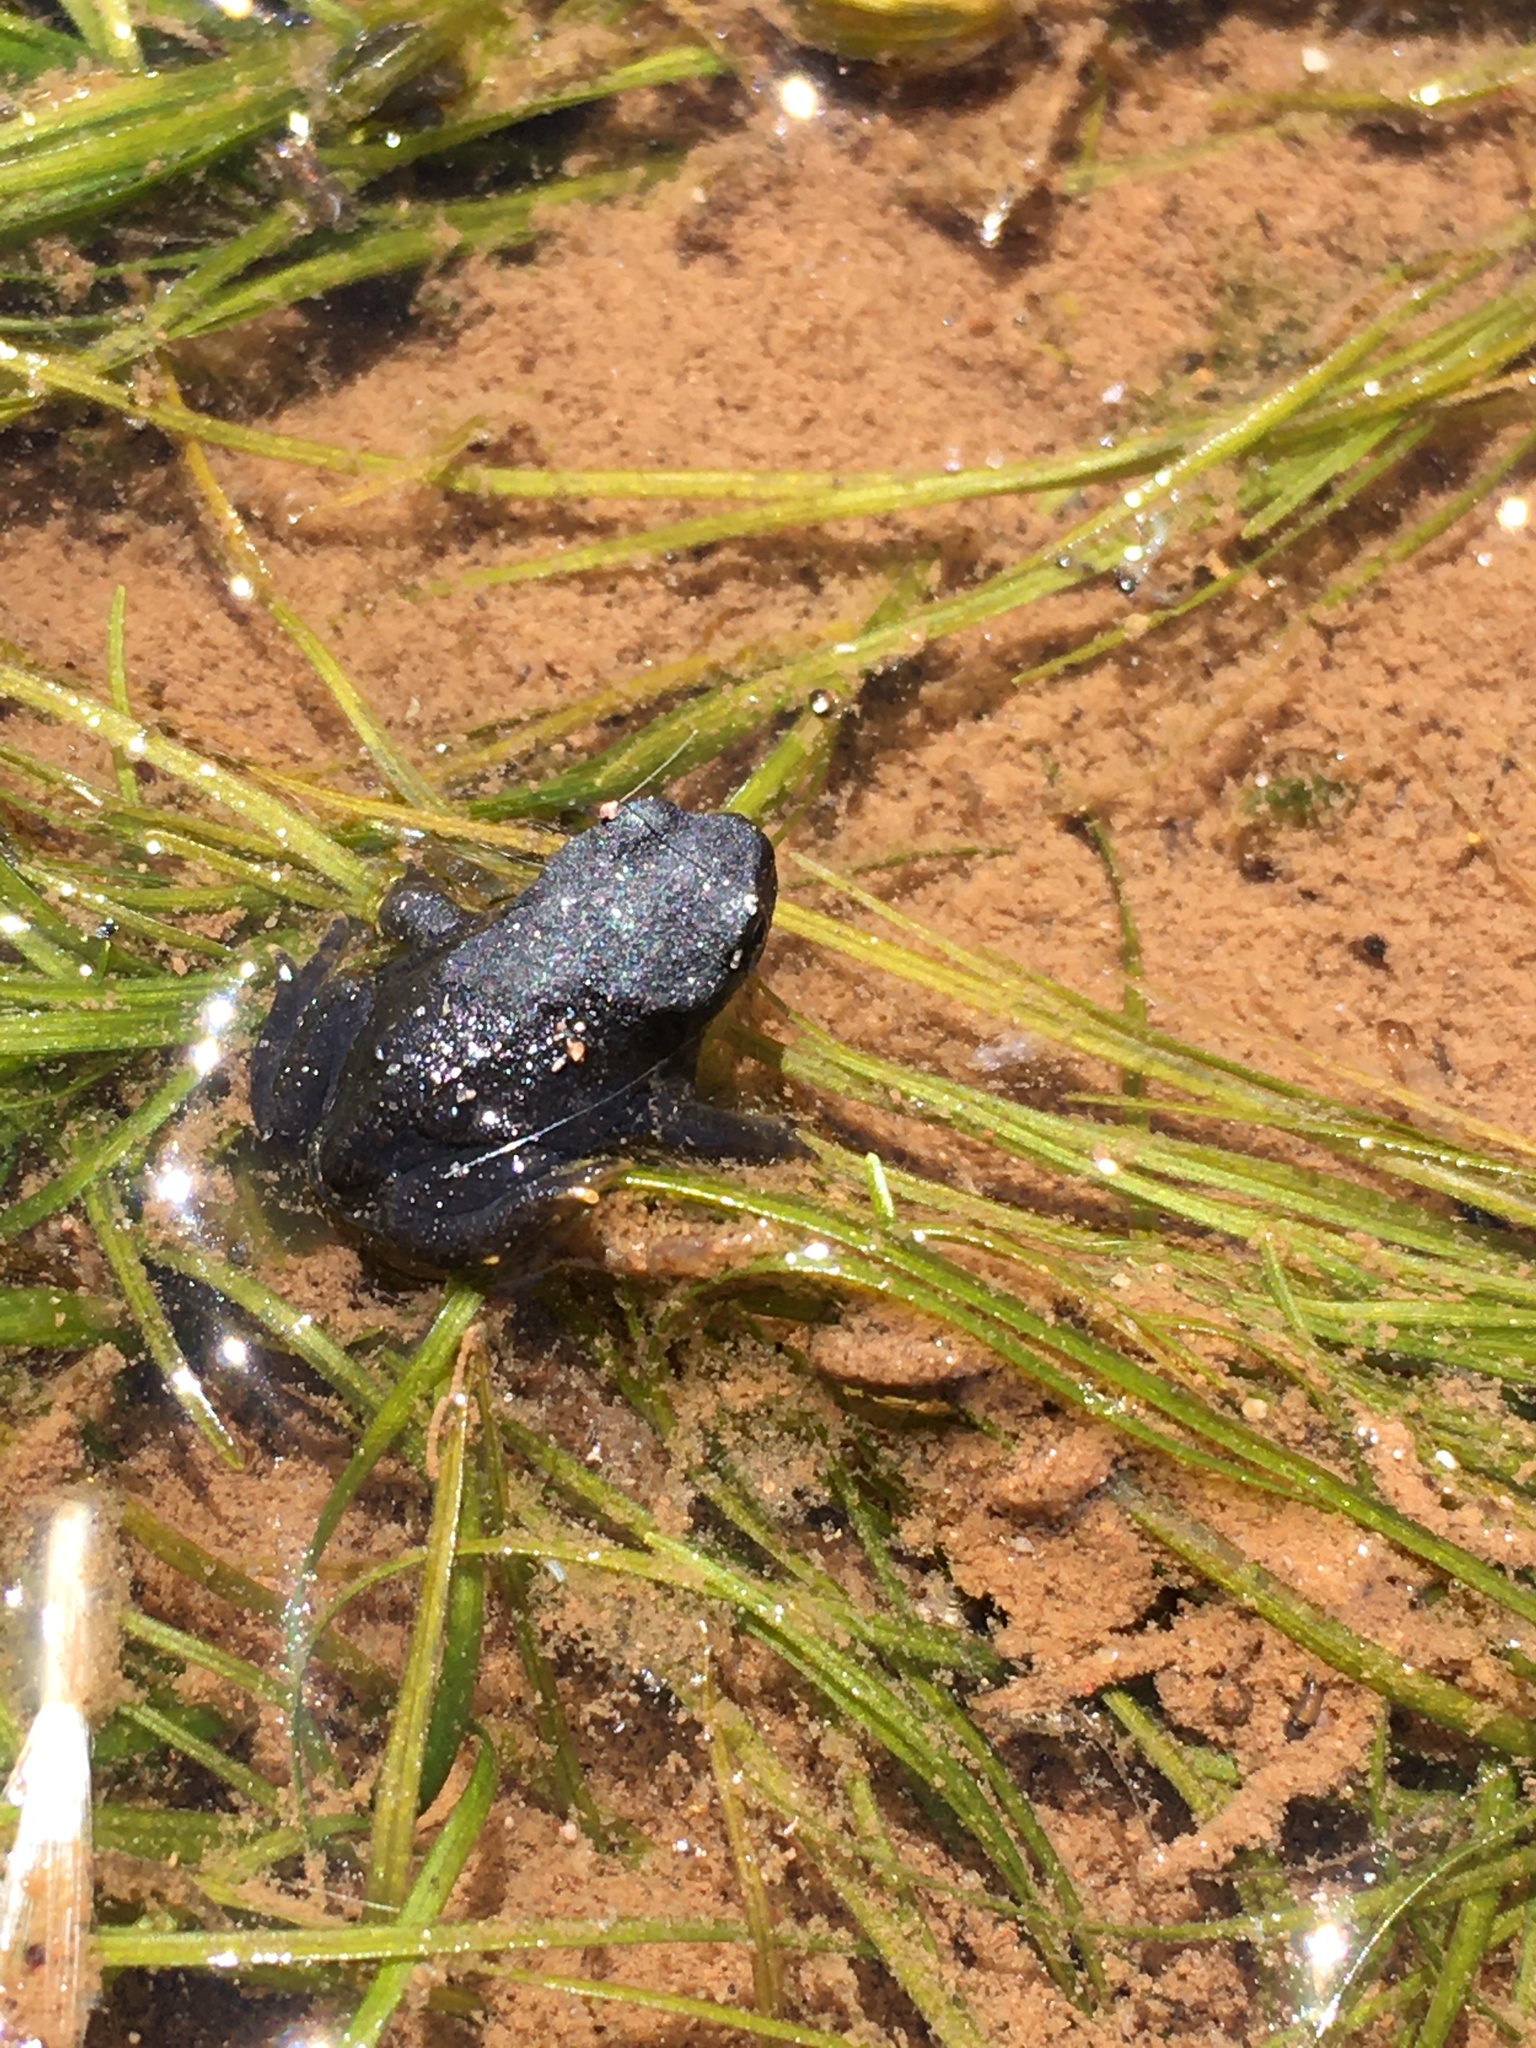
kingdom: Animalia
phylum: Chordata
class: Amphibia
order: Anura
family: Bufonidae
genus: Rhinella
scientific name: Rhinella spinulosa
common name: Warty toad
